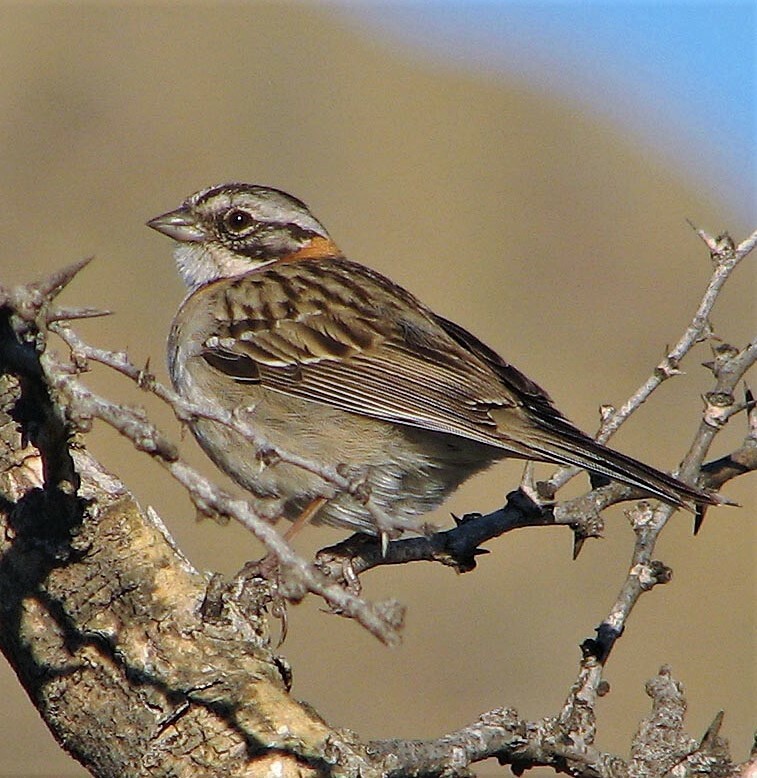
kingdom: Animalia
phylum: Chordata
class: Aves
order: Passeriformes
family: Passerellidae
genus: Zonotrichia
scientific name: Zonotrichia capensis
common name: Rufous-collared sparrow
